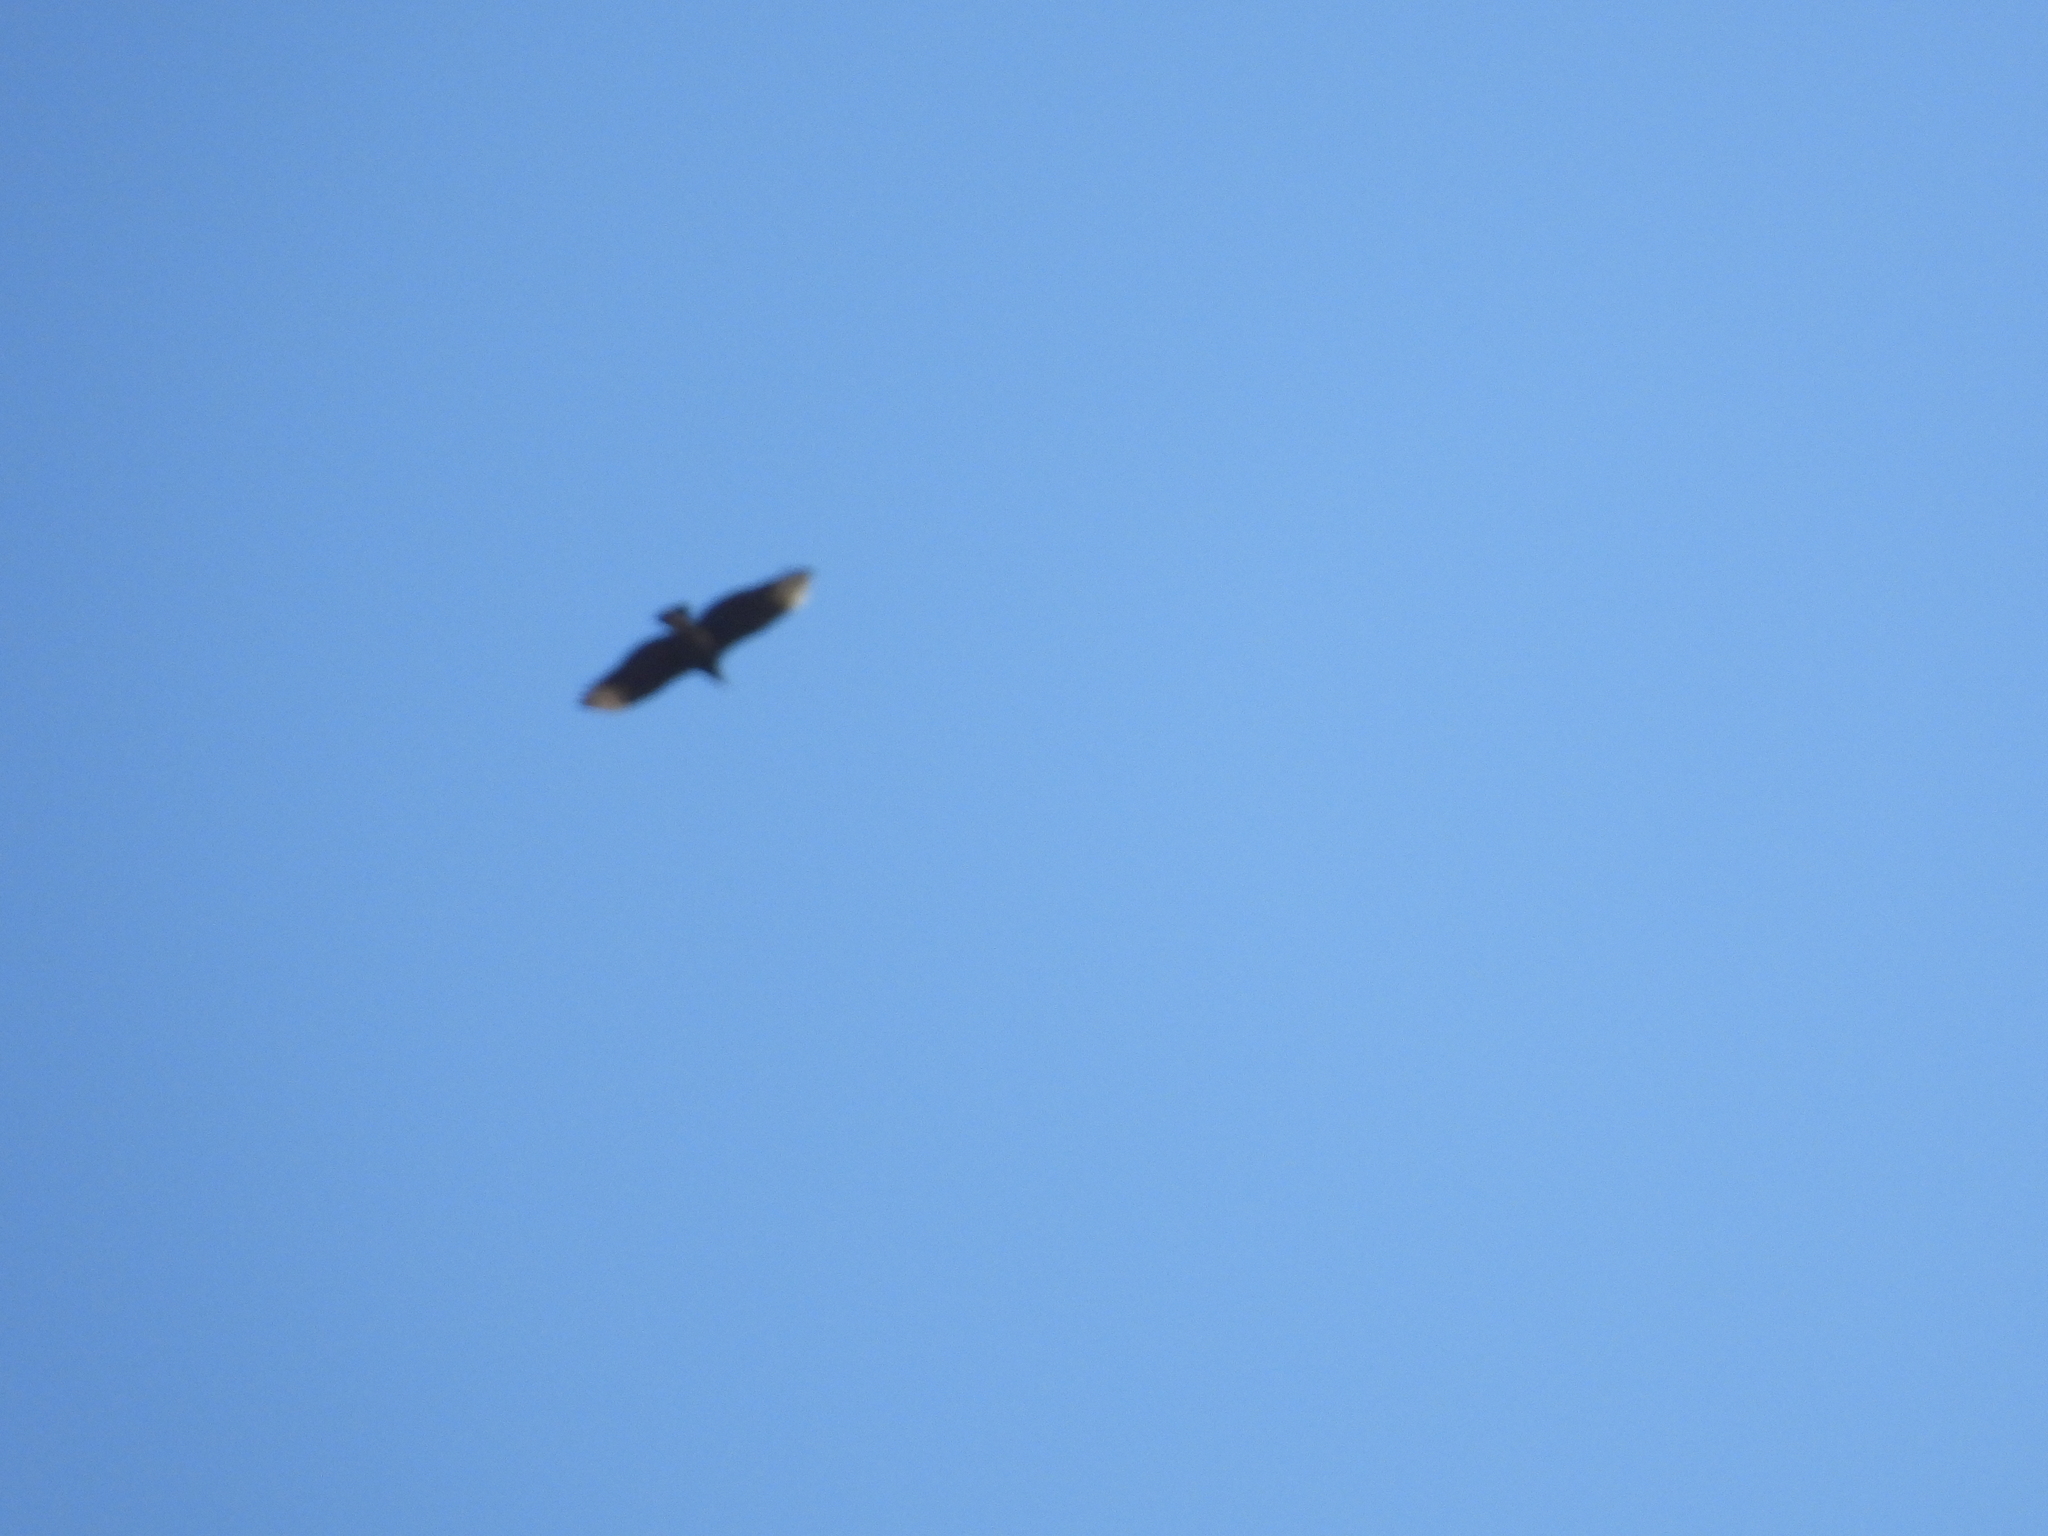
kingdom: Animalia
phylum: Chordata
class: Aves
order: Accipitriformes
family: Cathartidae
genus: Coragyps
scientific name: Coragyps atratus
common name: Black vulture
